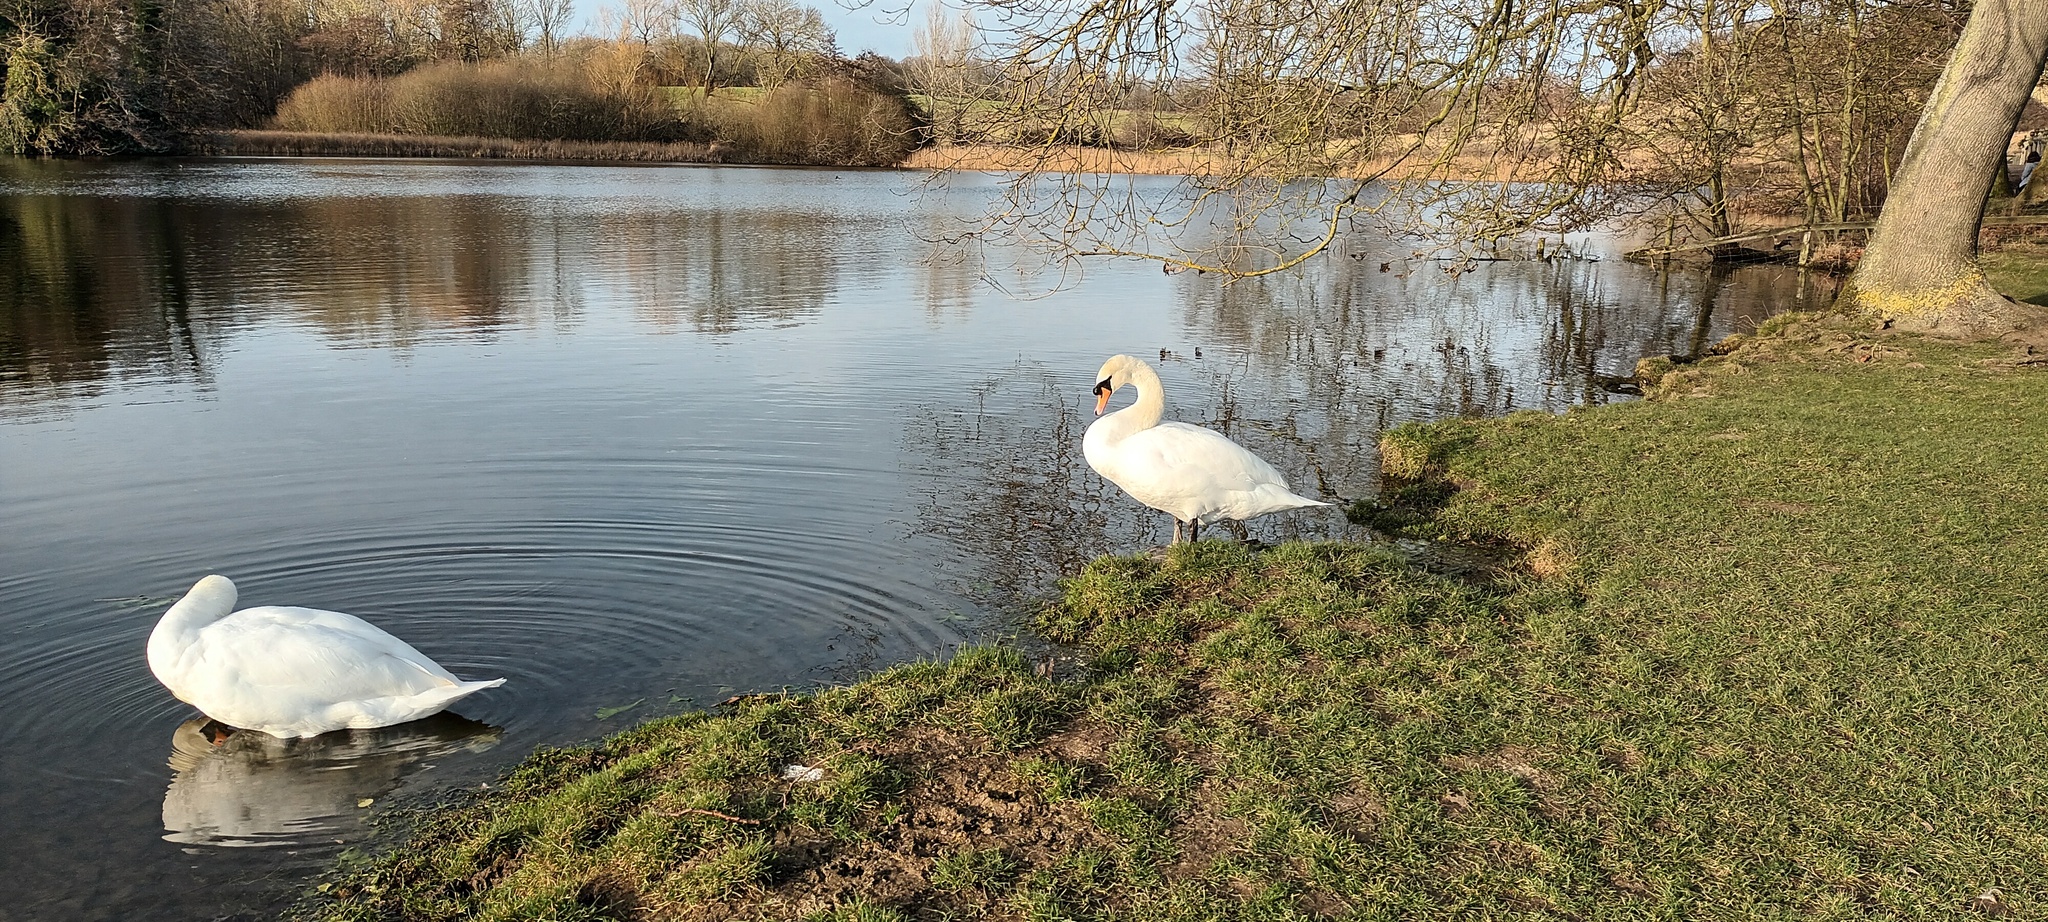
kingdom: Animalia
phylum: Chordata
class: Aves
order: Anseriformes
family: Anatidae
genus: Cygnus
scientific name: Cygnus olor
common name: Mute swan
